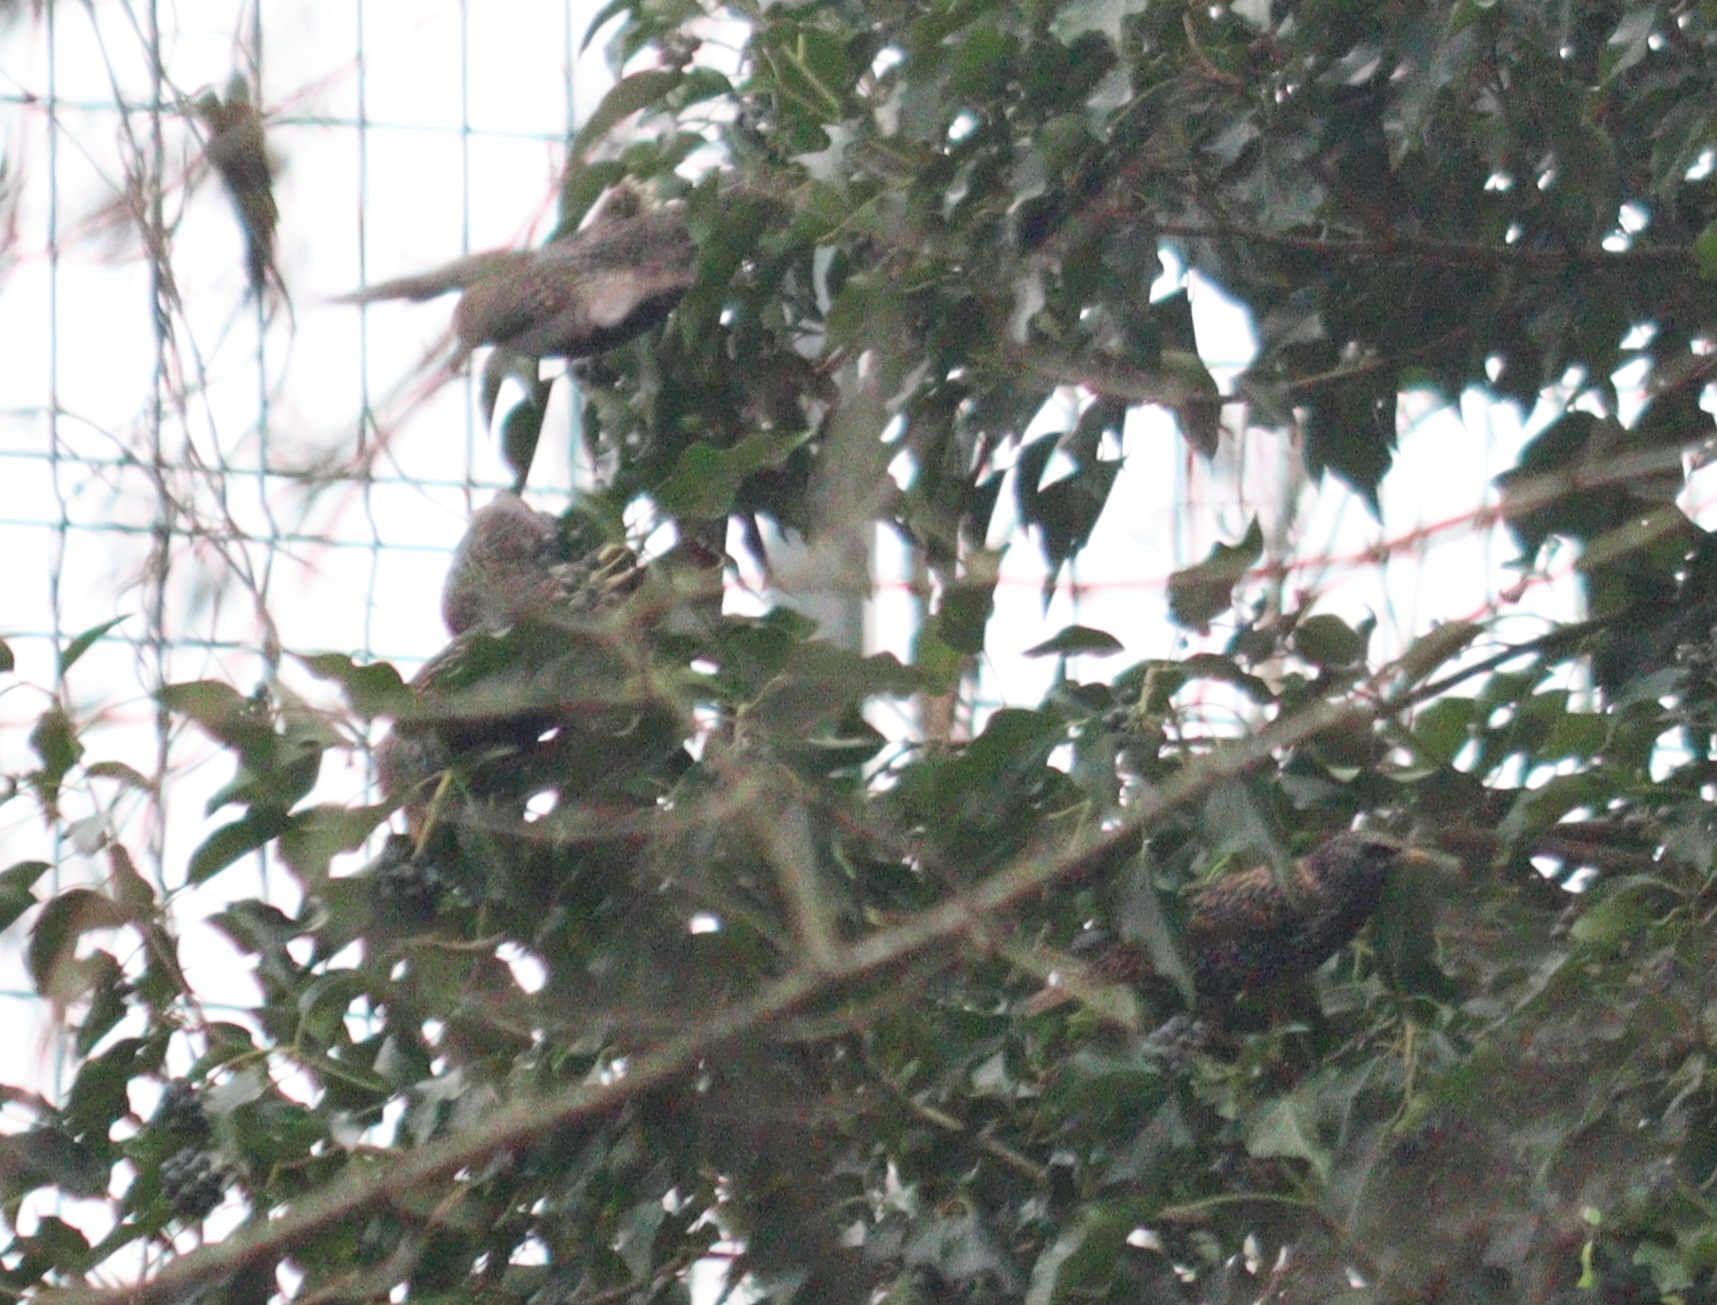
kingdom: Animalia
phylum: Chordata
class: Aves
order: Passeriformes
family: Sturnidae
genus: Sturnus
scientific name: Sturnus vulgaris
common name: Common starling
